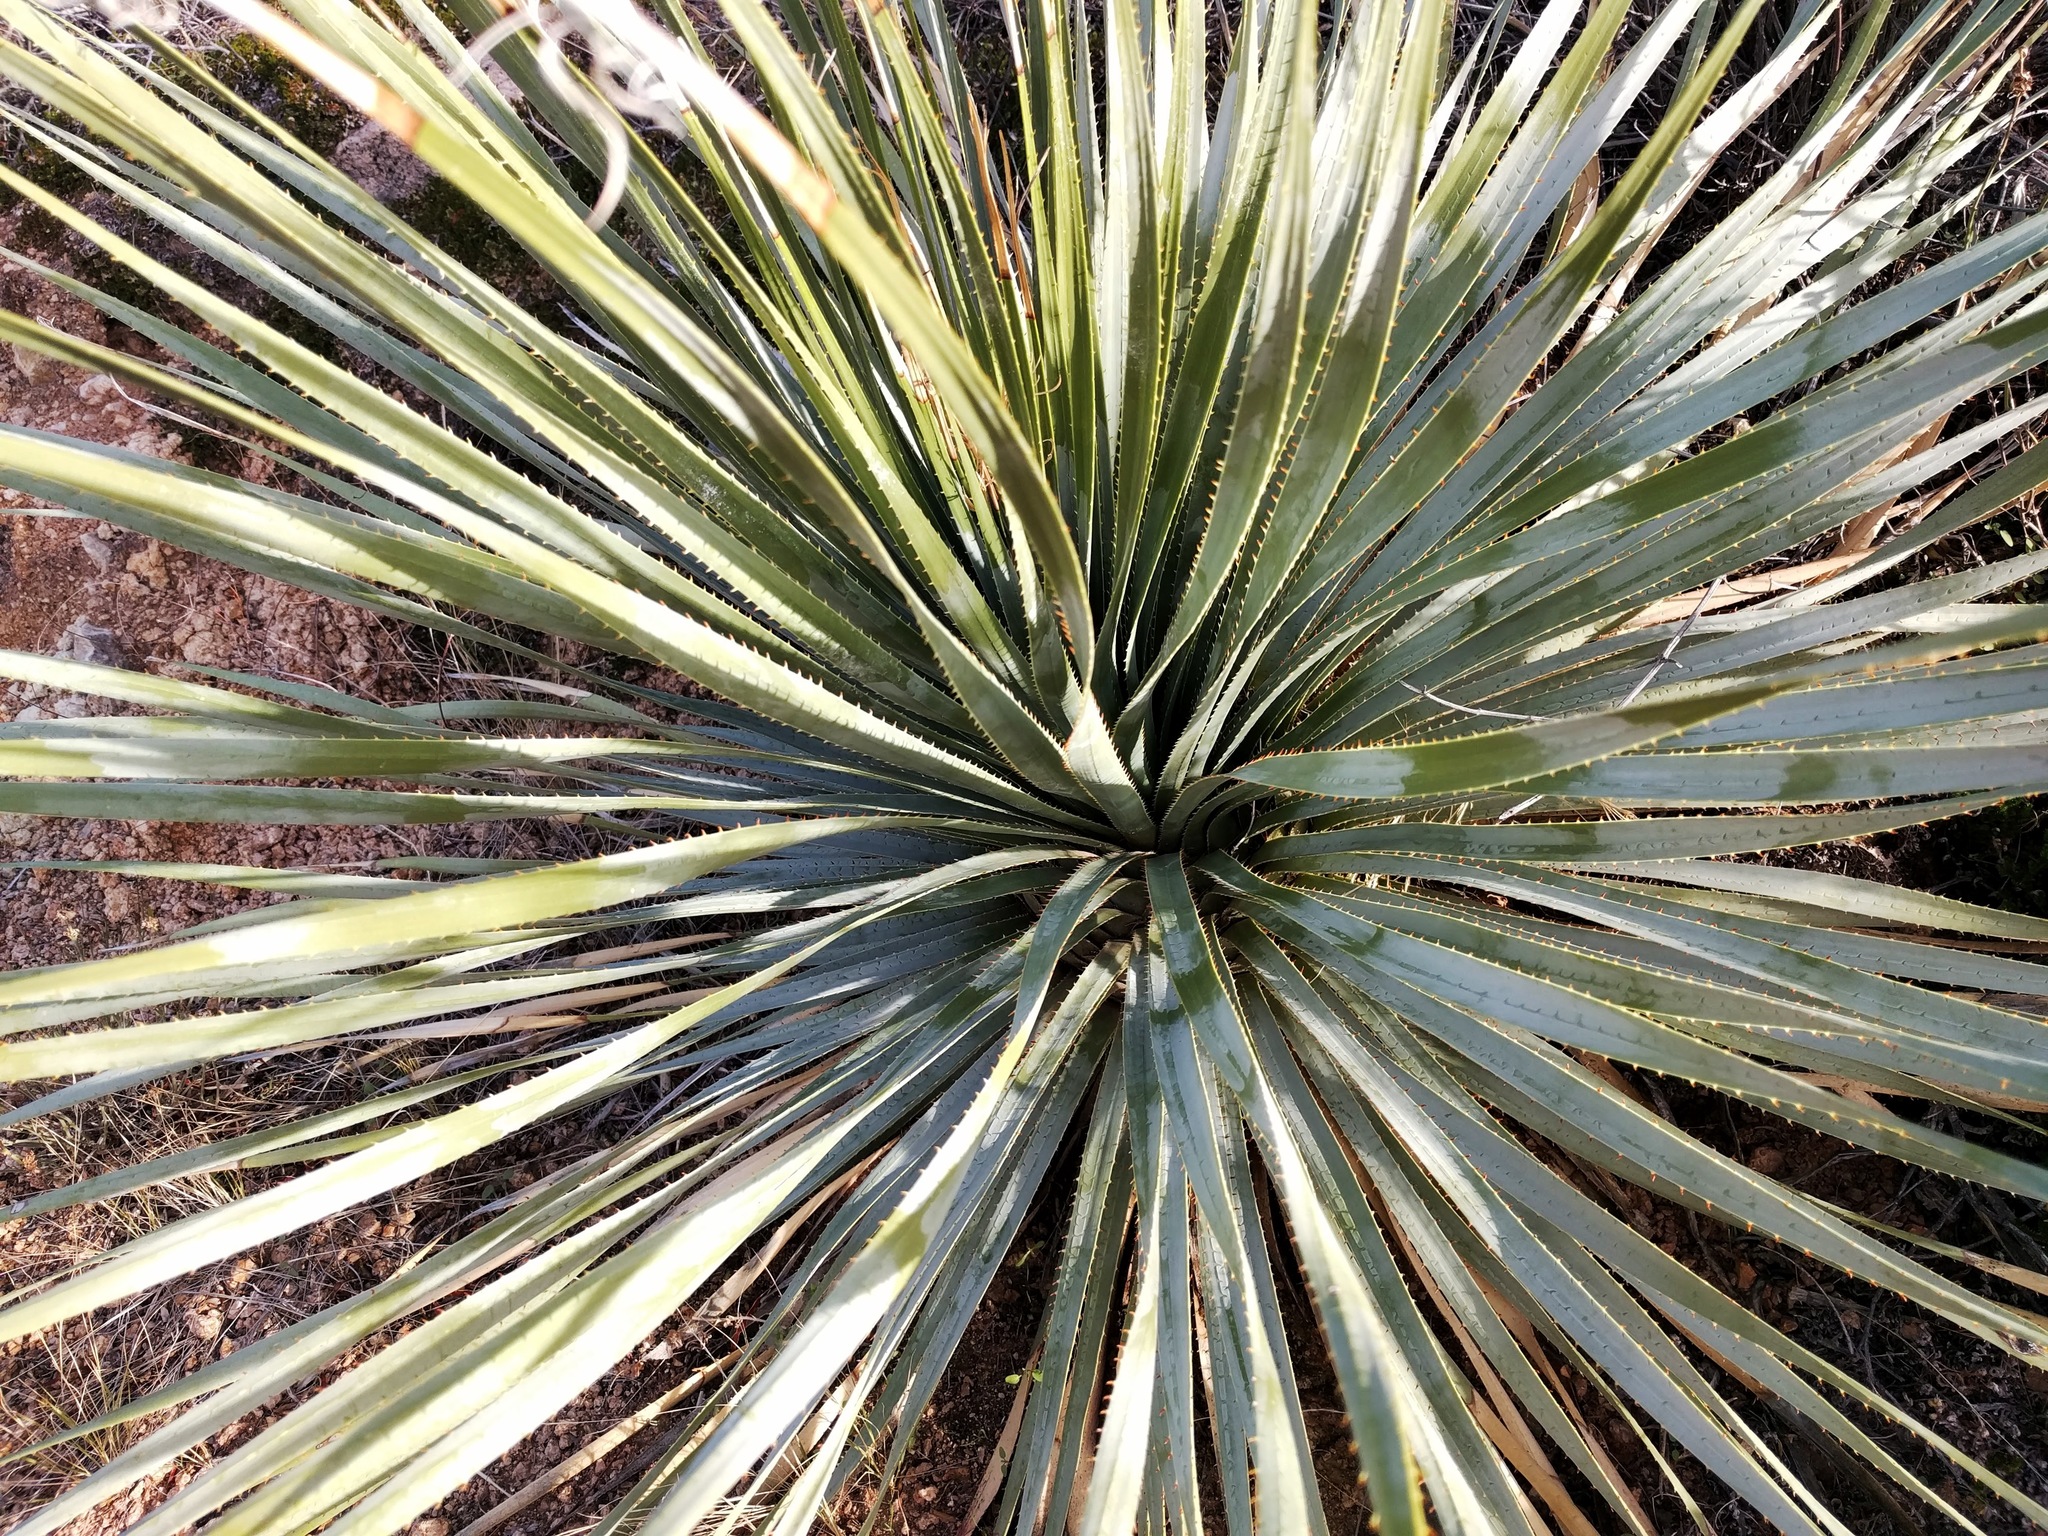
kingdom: Plantae
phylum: Tracheophyta
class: Liliopsida
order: Asparagales
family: Asparagaceae
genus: Dasylirion
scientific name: Dasylirion wheeleri
